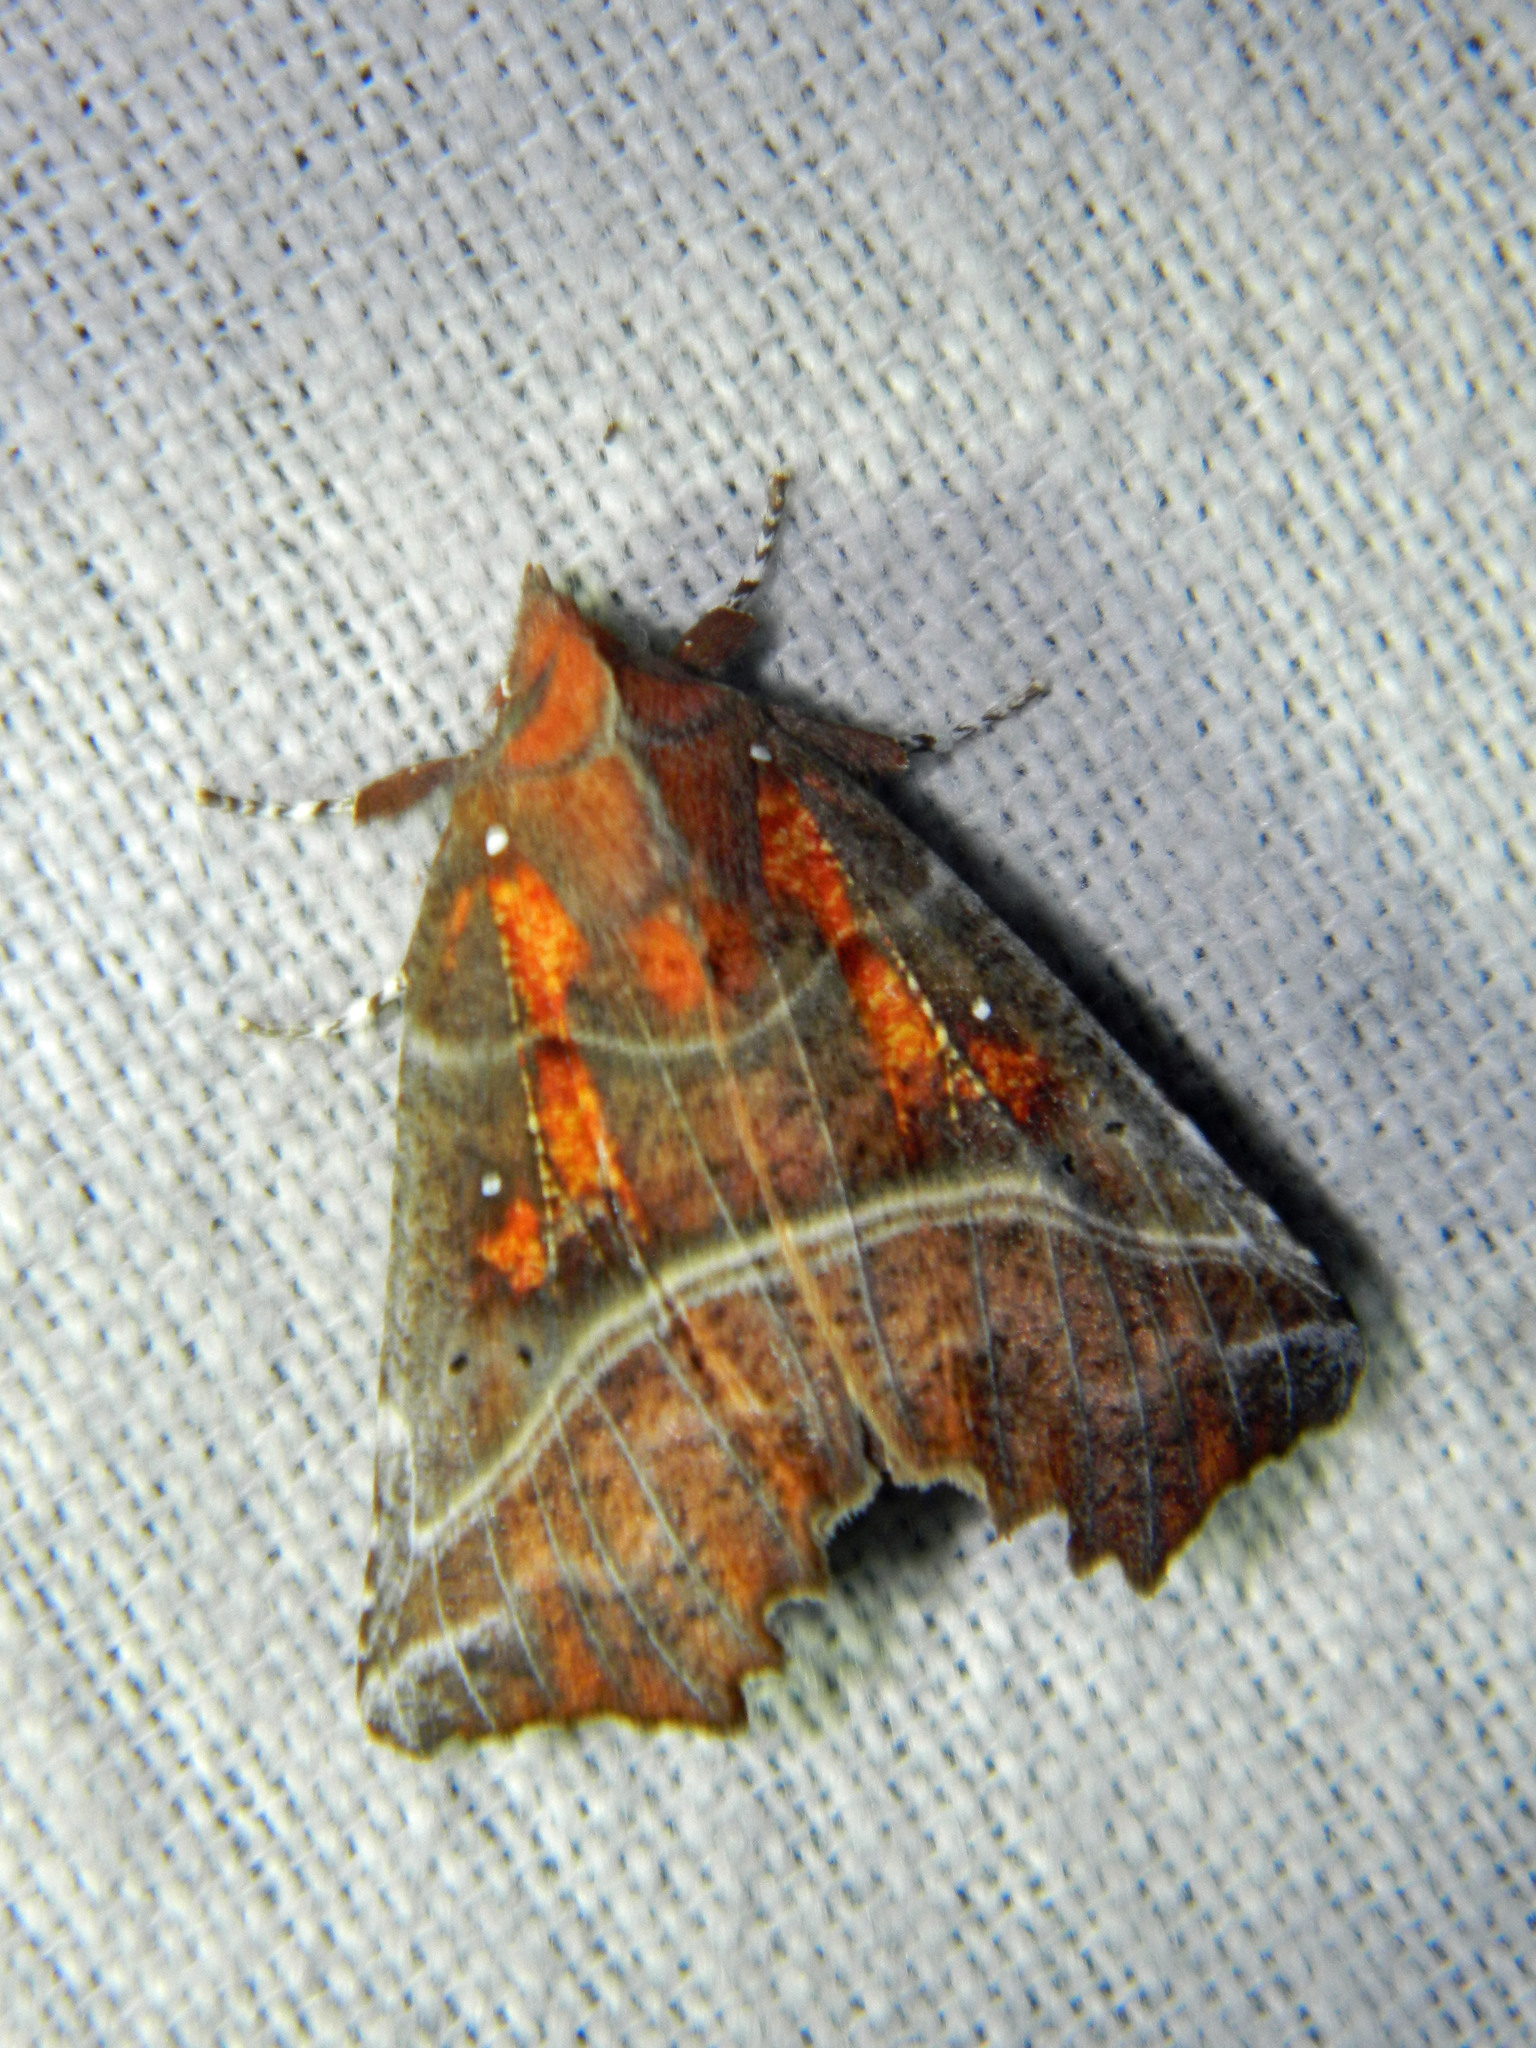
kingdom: Animalia
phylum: Arthropoda
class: Insecta
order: Lepidoptera
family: Erebidae
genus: Scoliopteryx
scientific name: Scoliopteryx libatrix
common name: Herald
